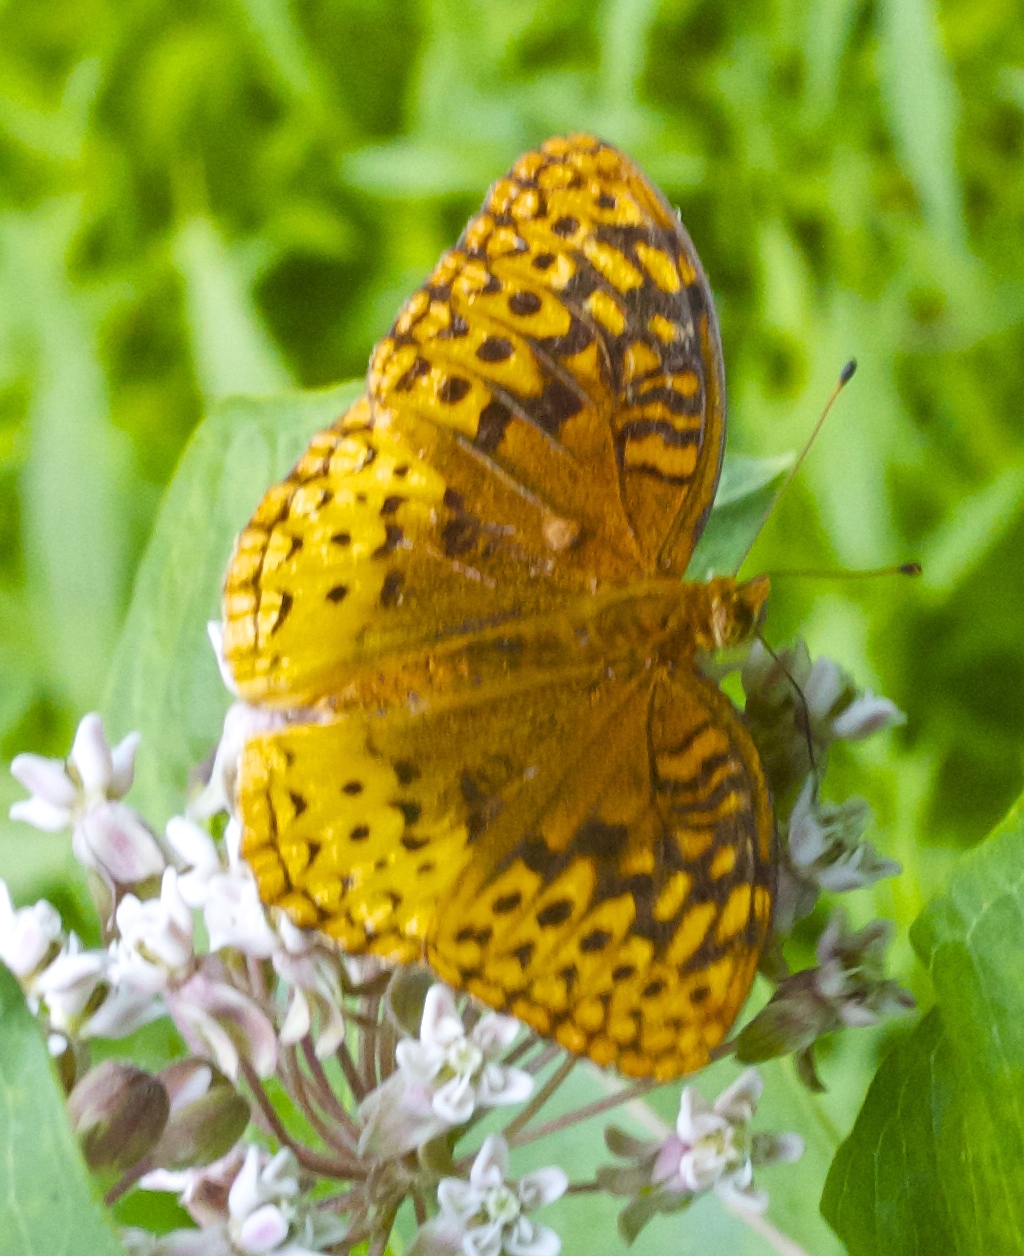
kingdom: Animalia
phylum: Arthropoda
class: Insecta
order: Lepidoptera
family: Nymphalidae
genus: Speyeria
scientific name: Speyeria cybele
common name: Great spangled fritillary
